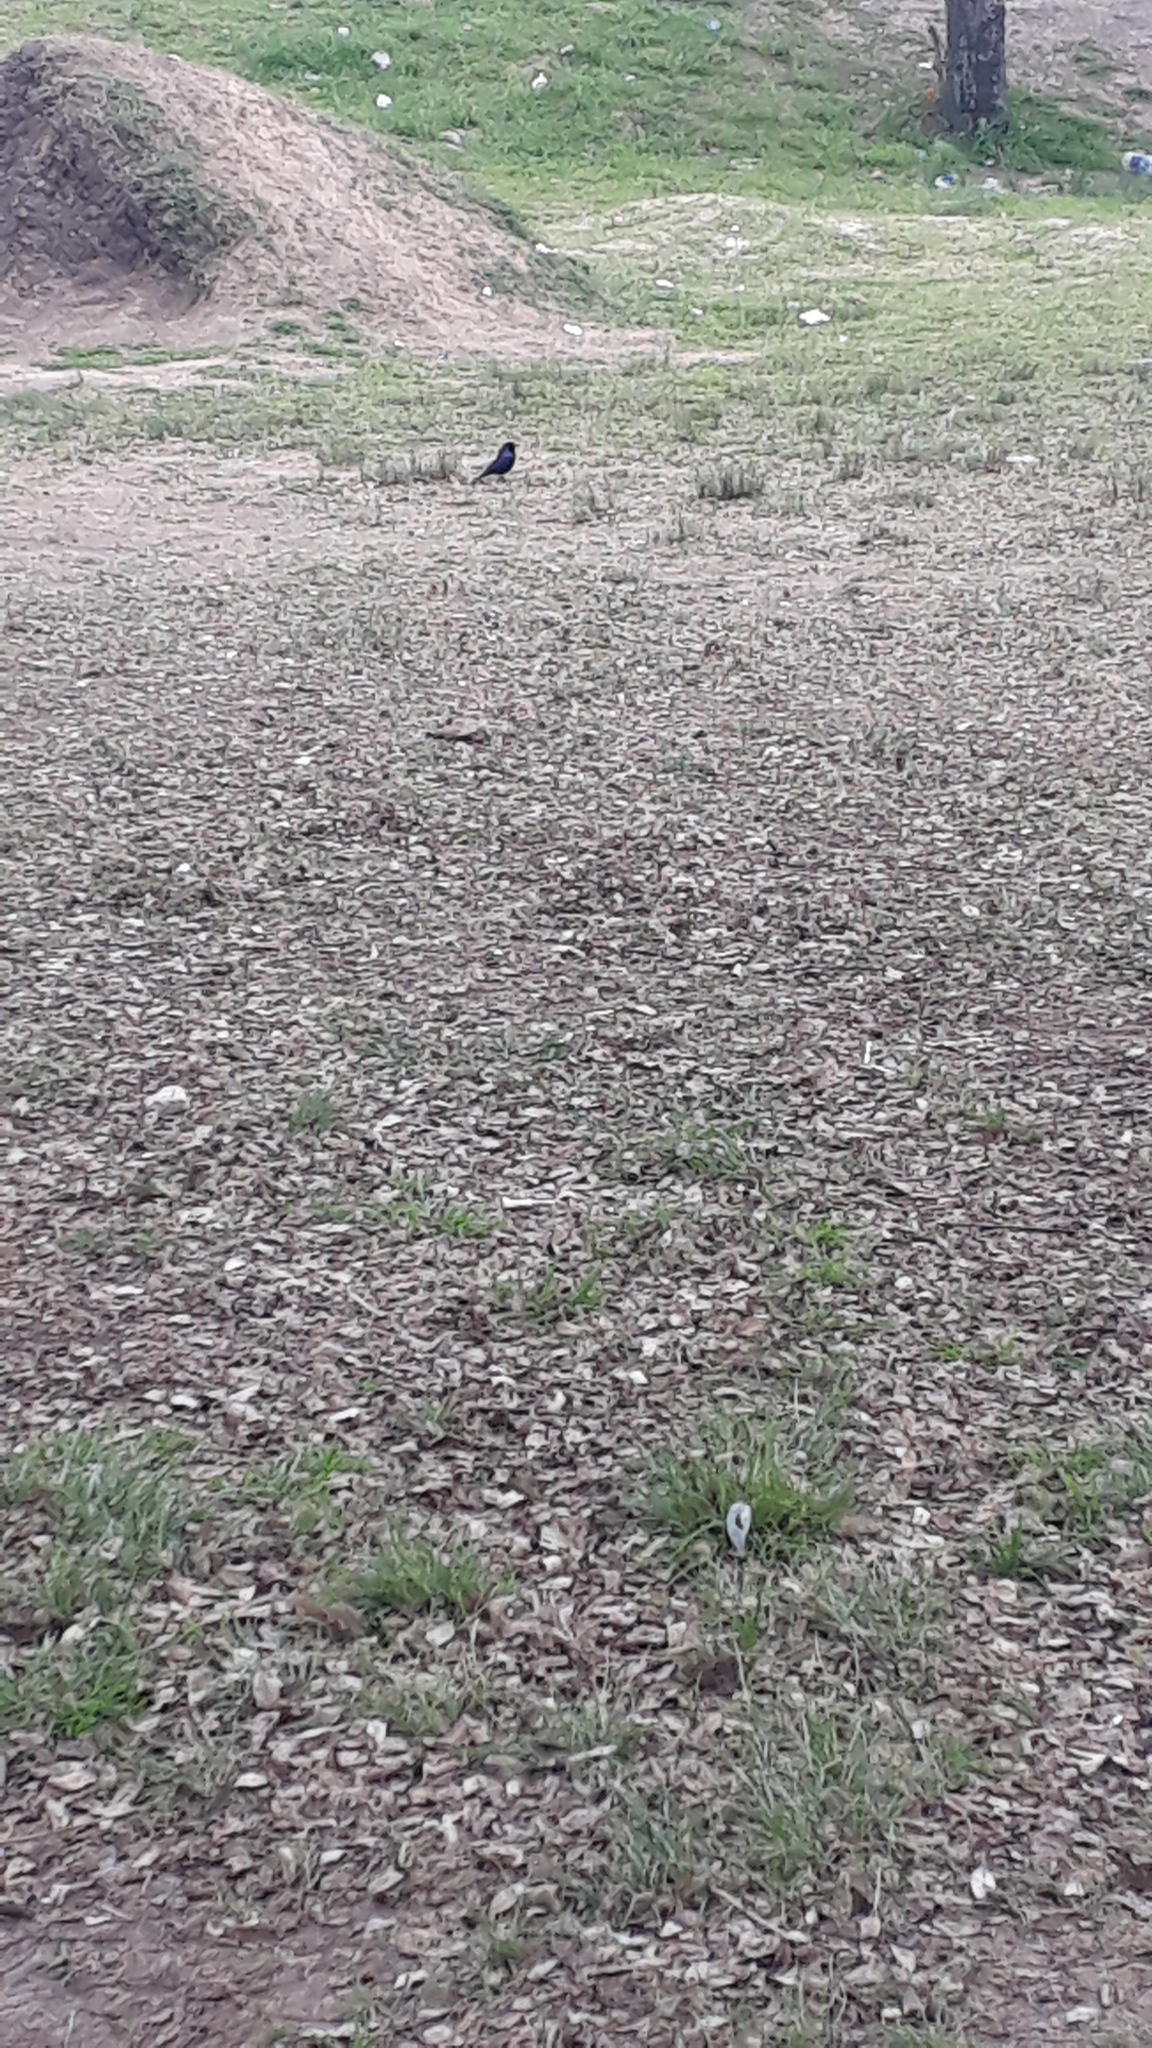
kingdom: Animalia
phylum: Chordata
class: Aves
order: Passeriformes
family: Icteridae
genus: Molothrus
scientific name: Molothrus bonariensis
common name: Shiny cowbird
